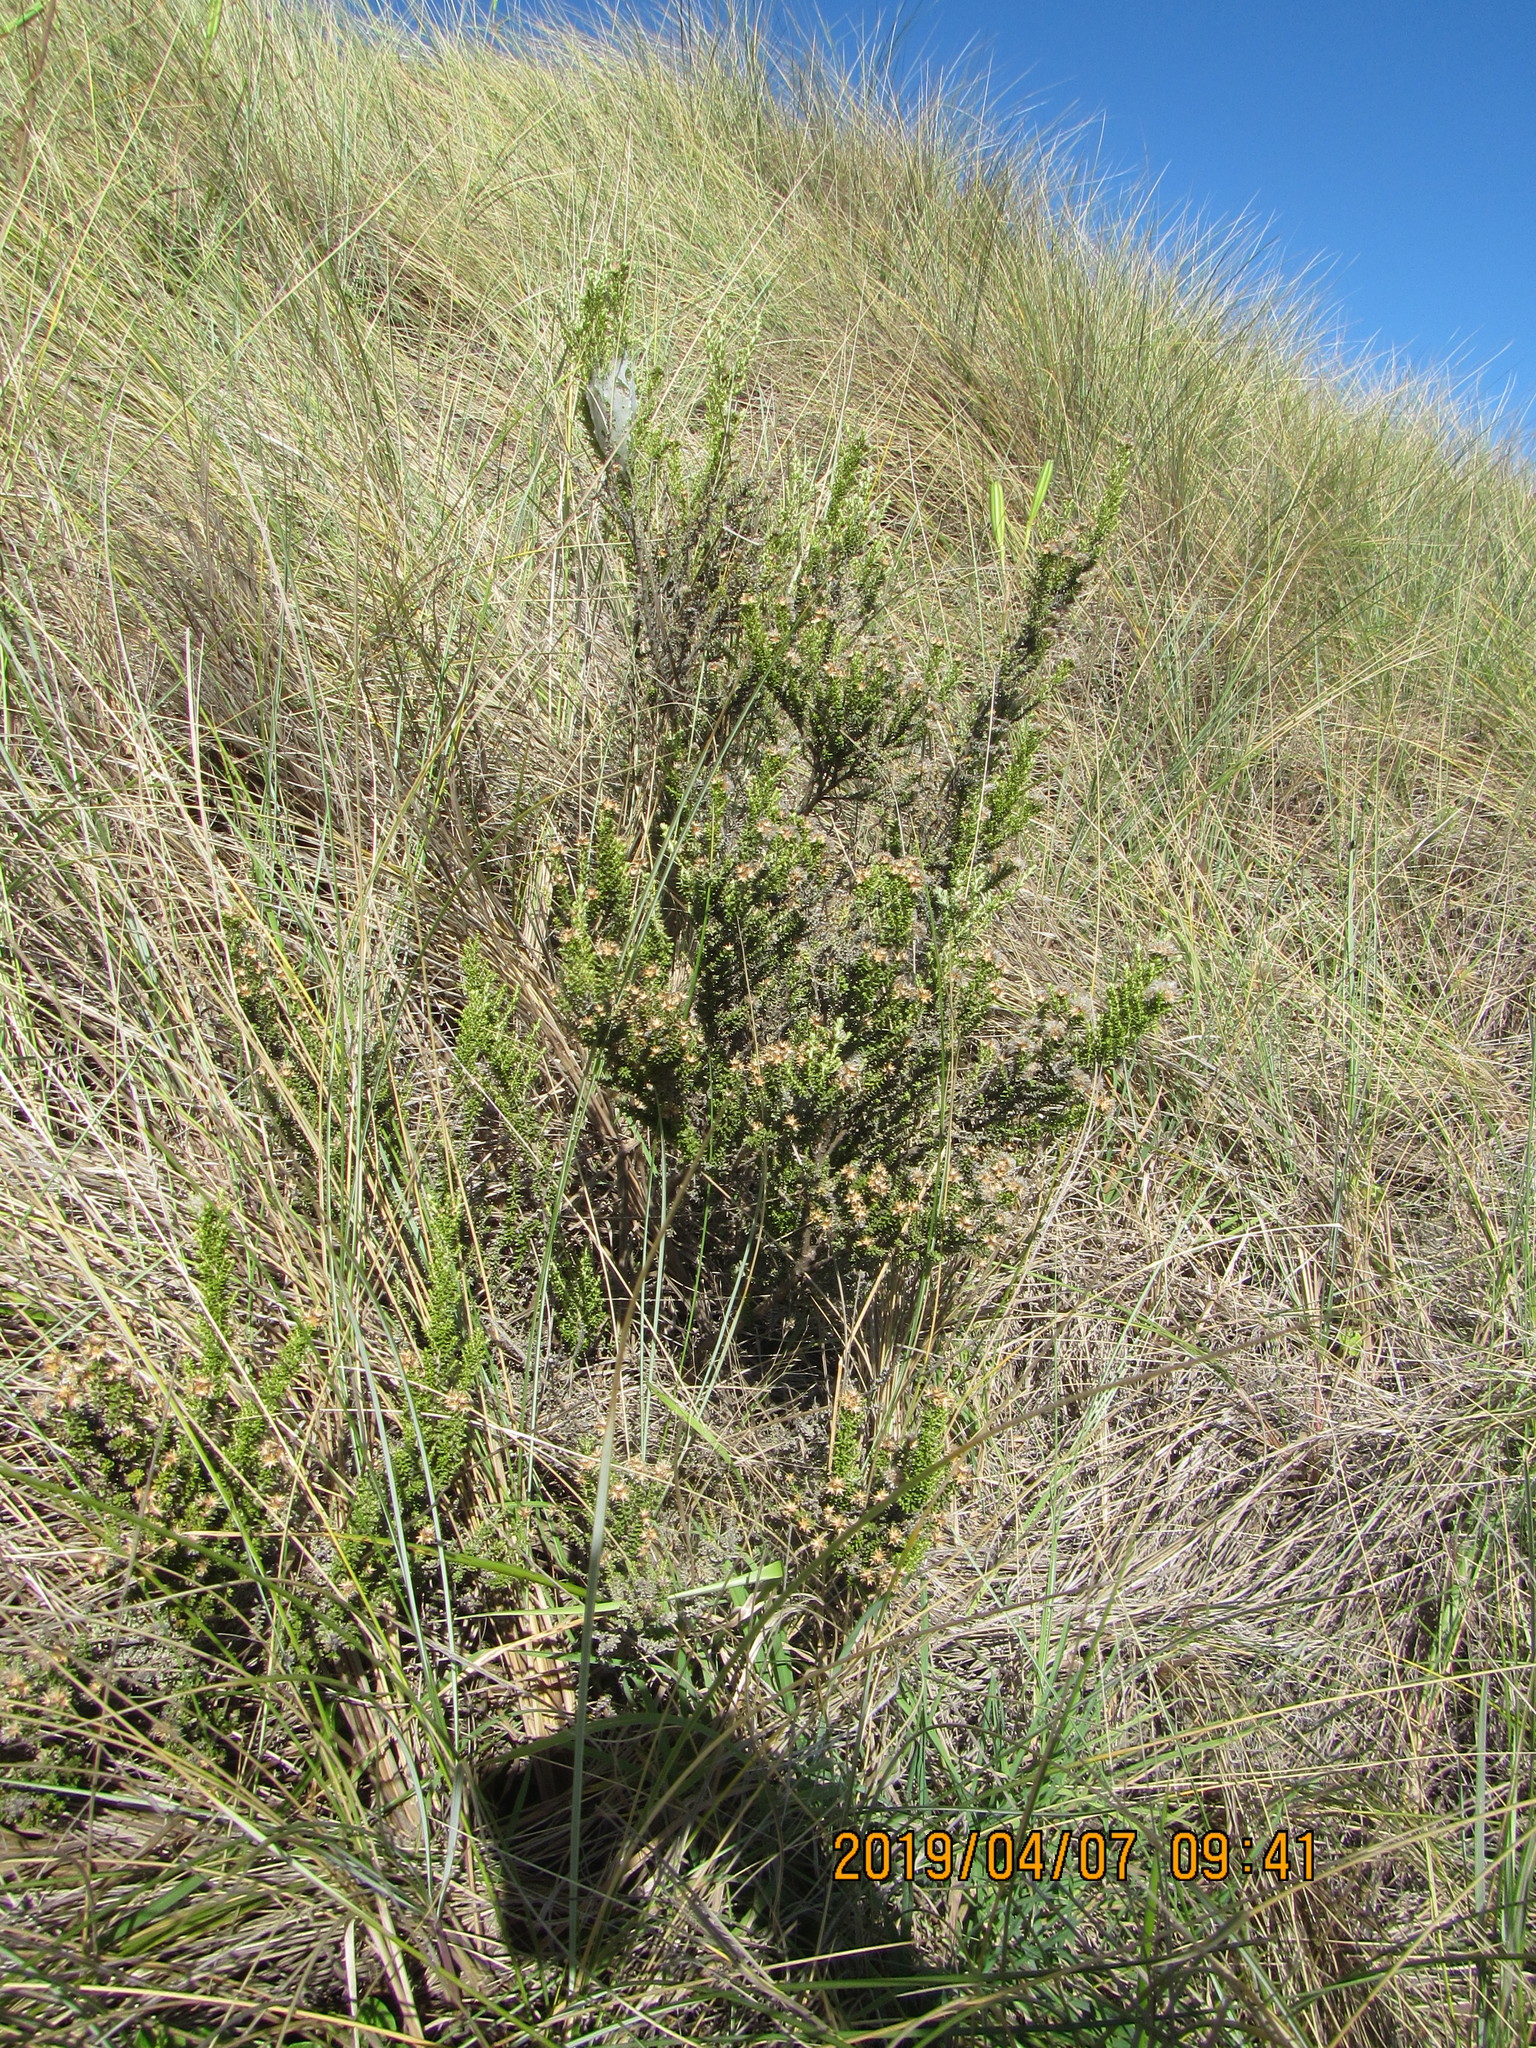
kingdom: Plantae
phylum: Tracheophyta
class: Magnoliopsida
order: Asterales
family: Asteraceae
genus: Ozothamnus
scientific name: Ozothamnus leptophyllus
